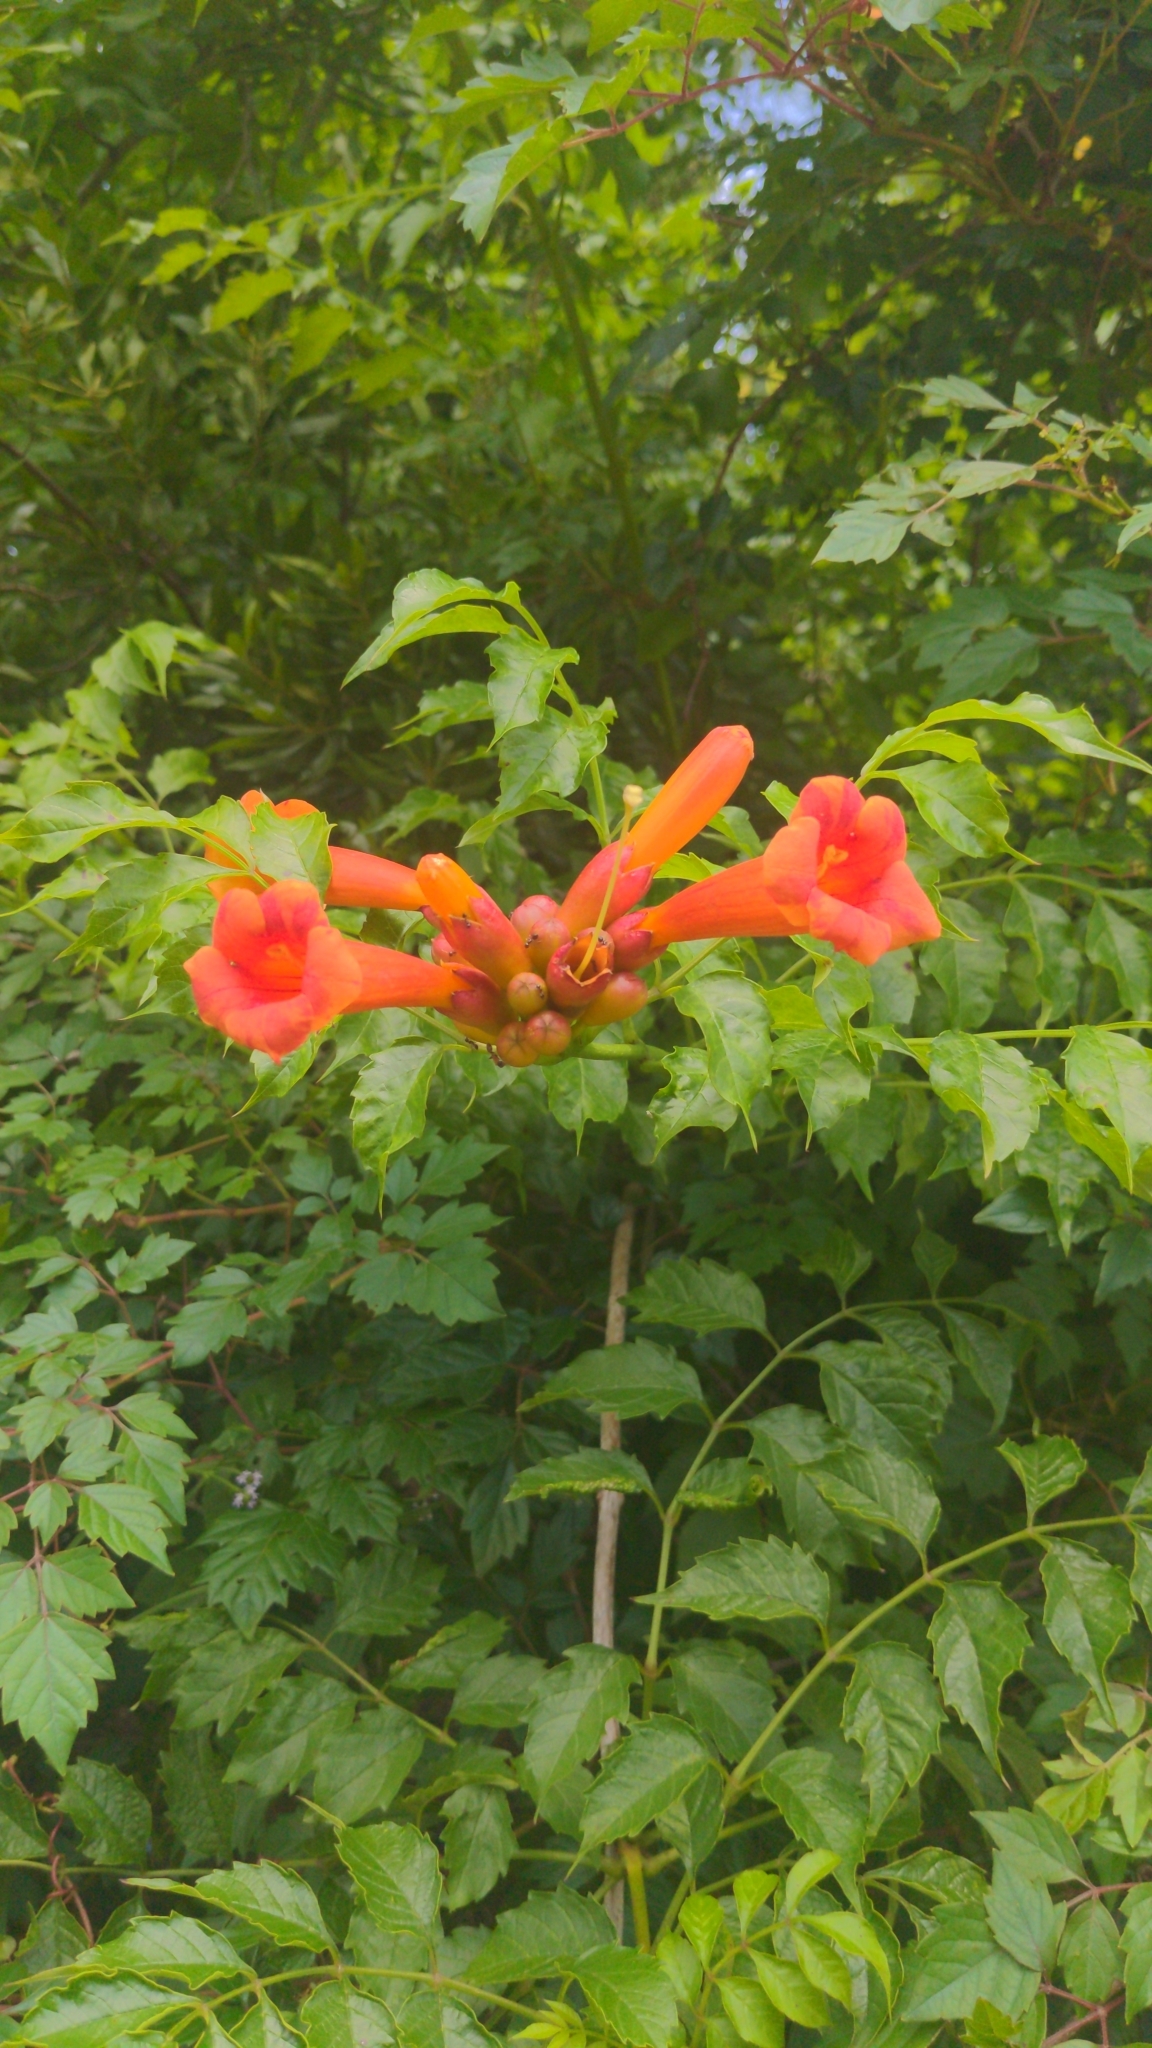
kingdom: Plantae
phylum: Tracheophyta
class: Magnoliopsida
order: Lamiales
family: Bignoniaceae
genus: Campsis
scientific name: Campsis radicans
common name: Trumpet-creeper
